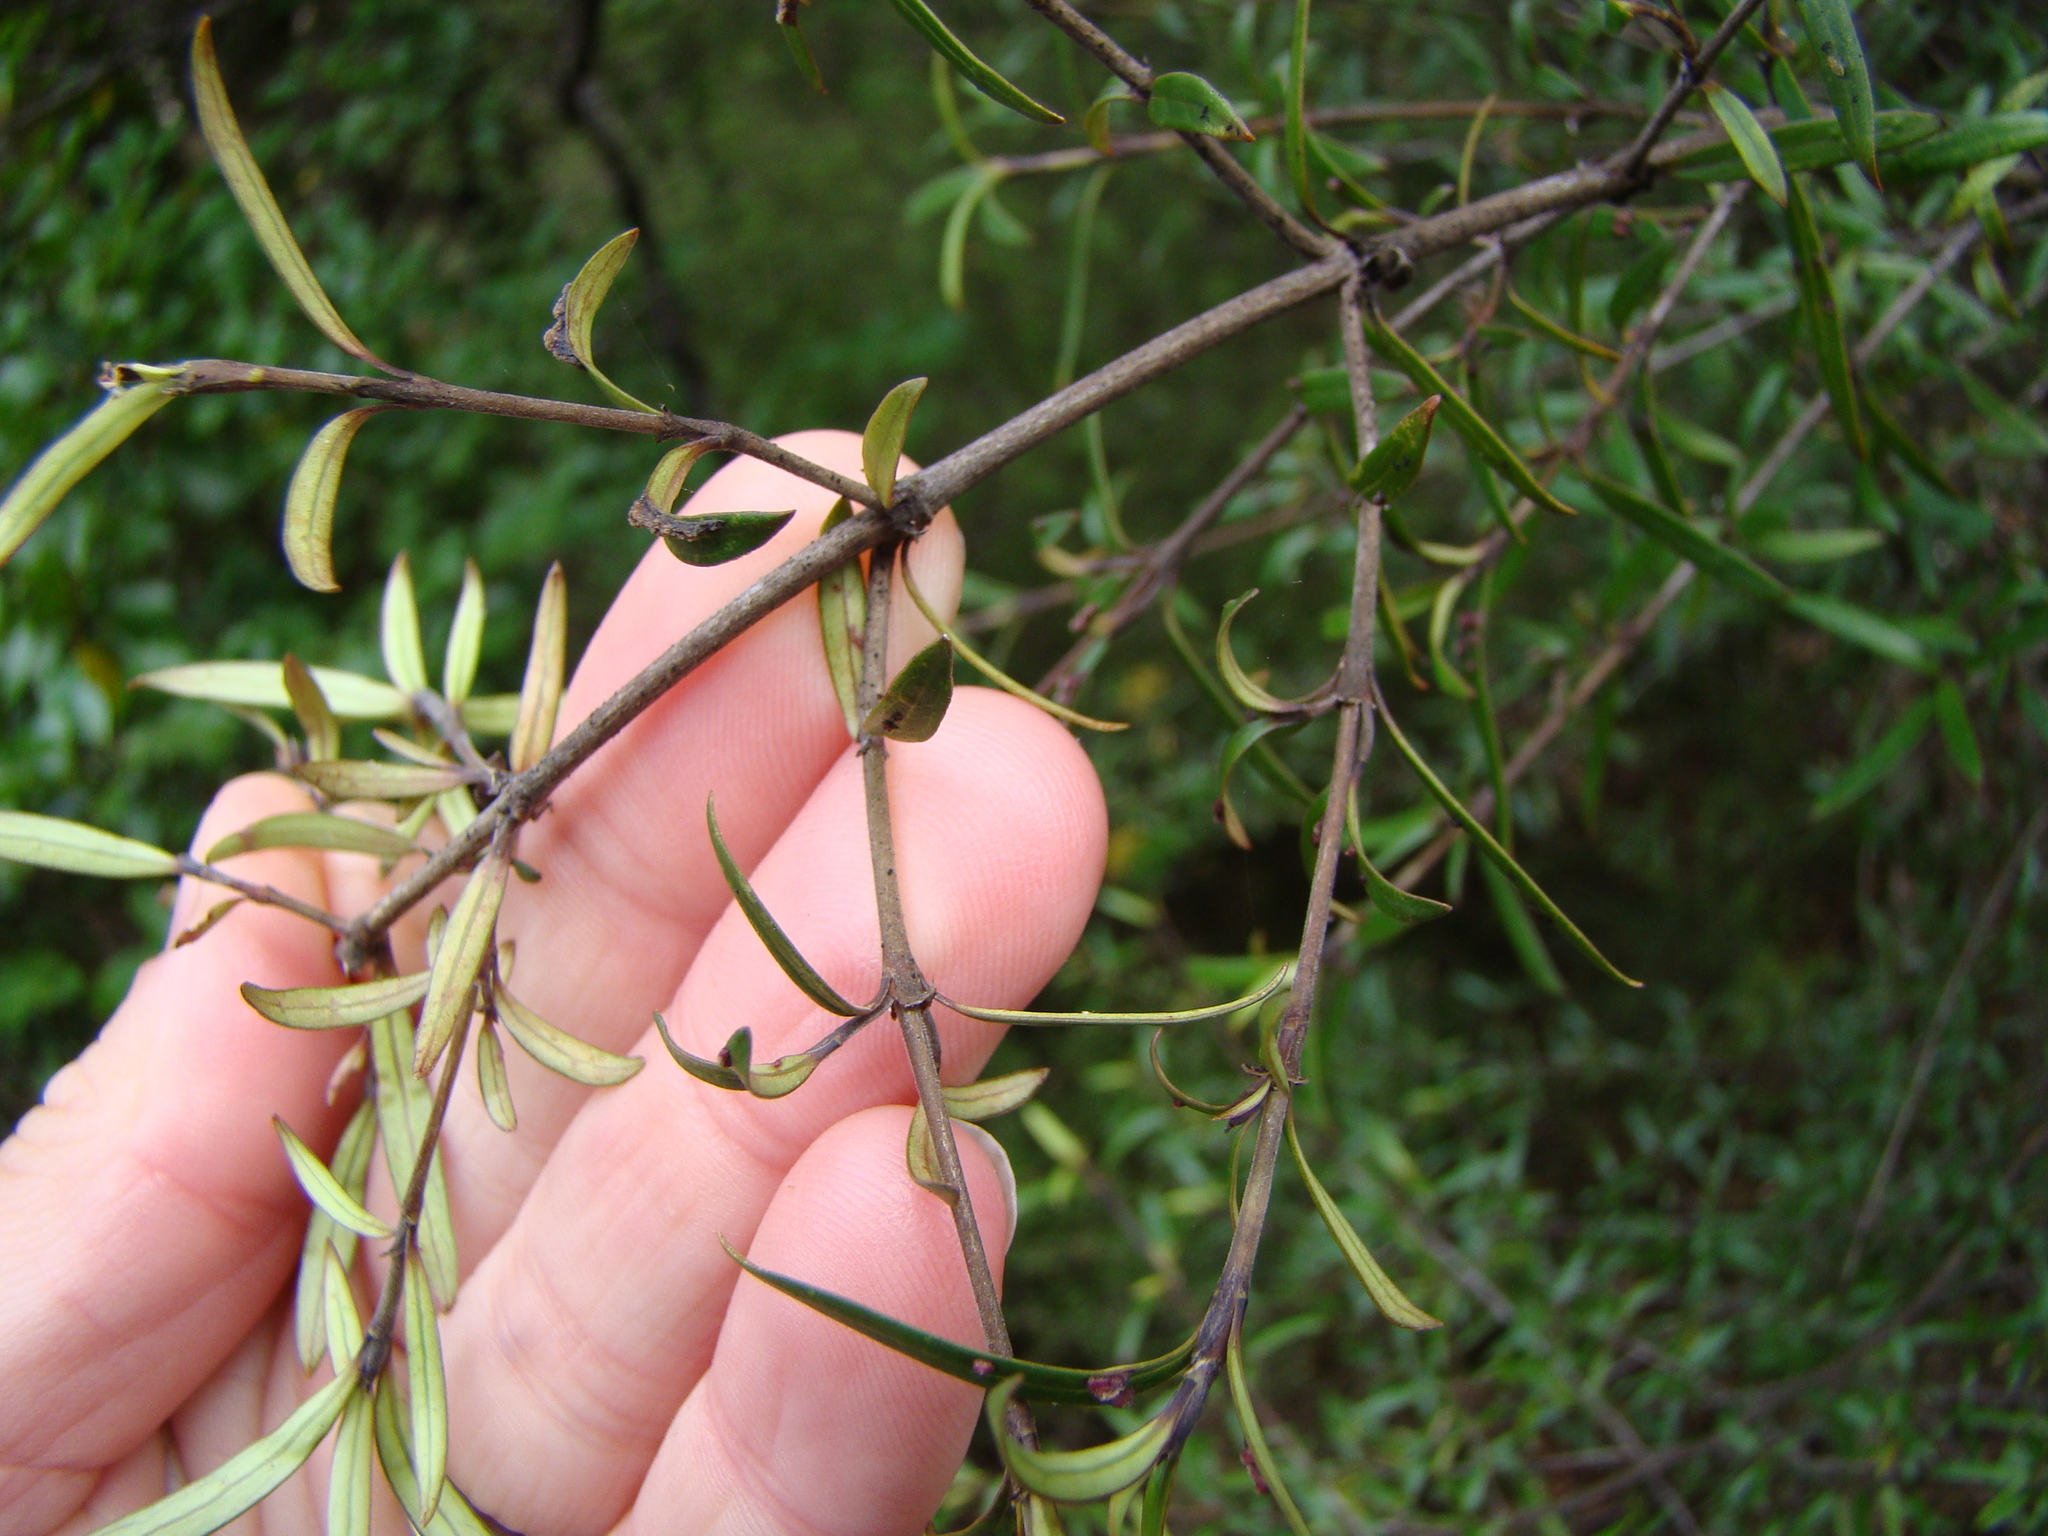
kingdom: Plantae
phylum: Tracheophyta
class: Magnoliopsida
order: Gentianales
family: Rubiaceae
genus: Coprosma
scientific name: Coprosma linariifolia
